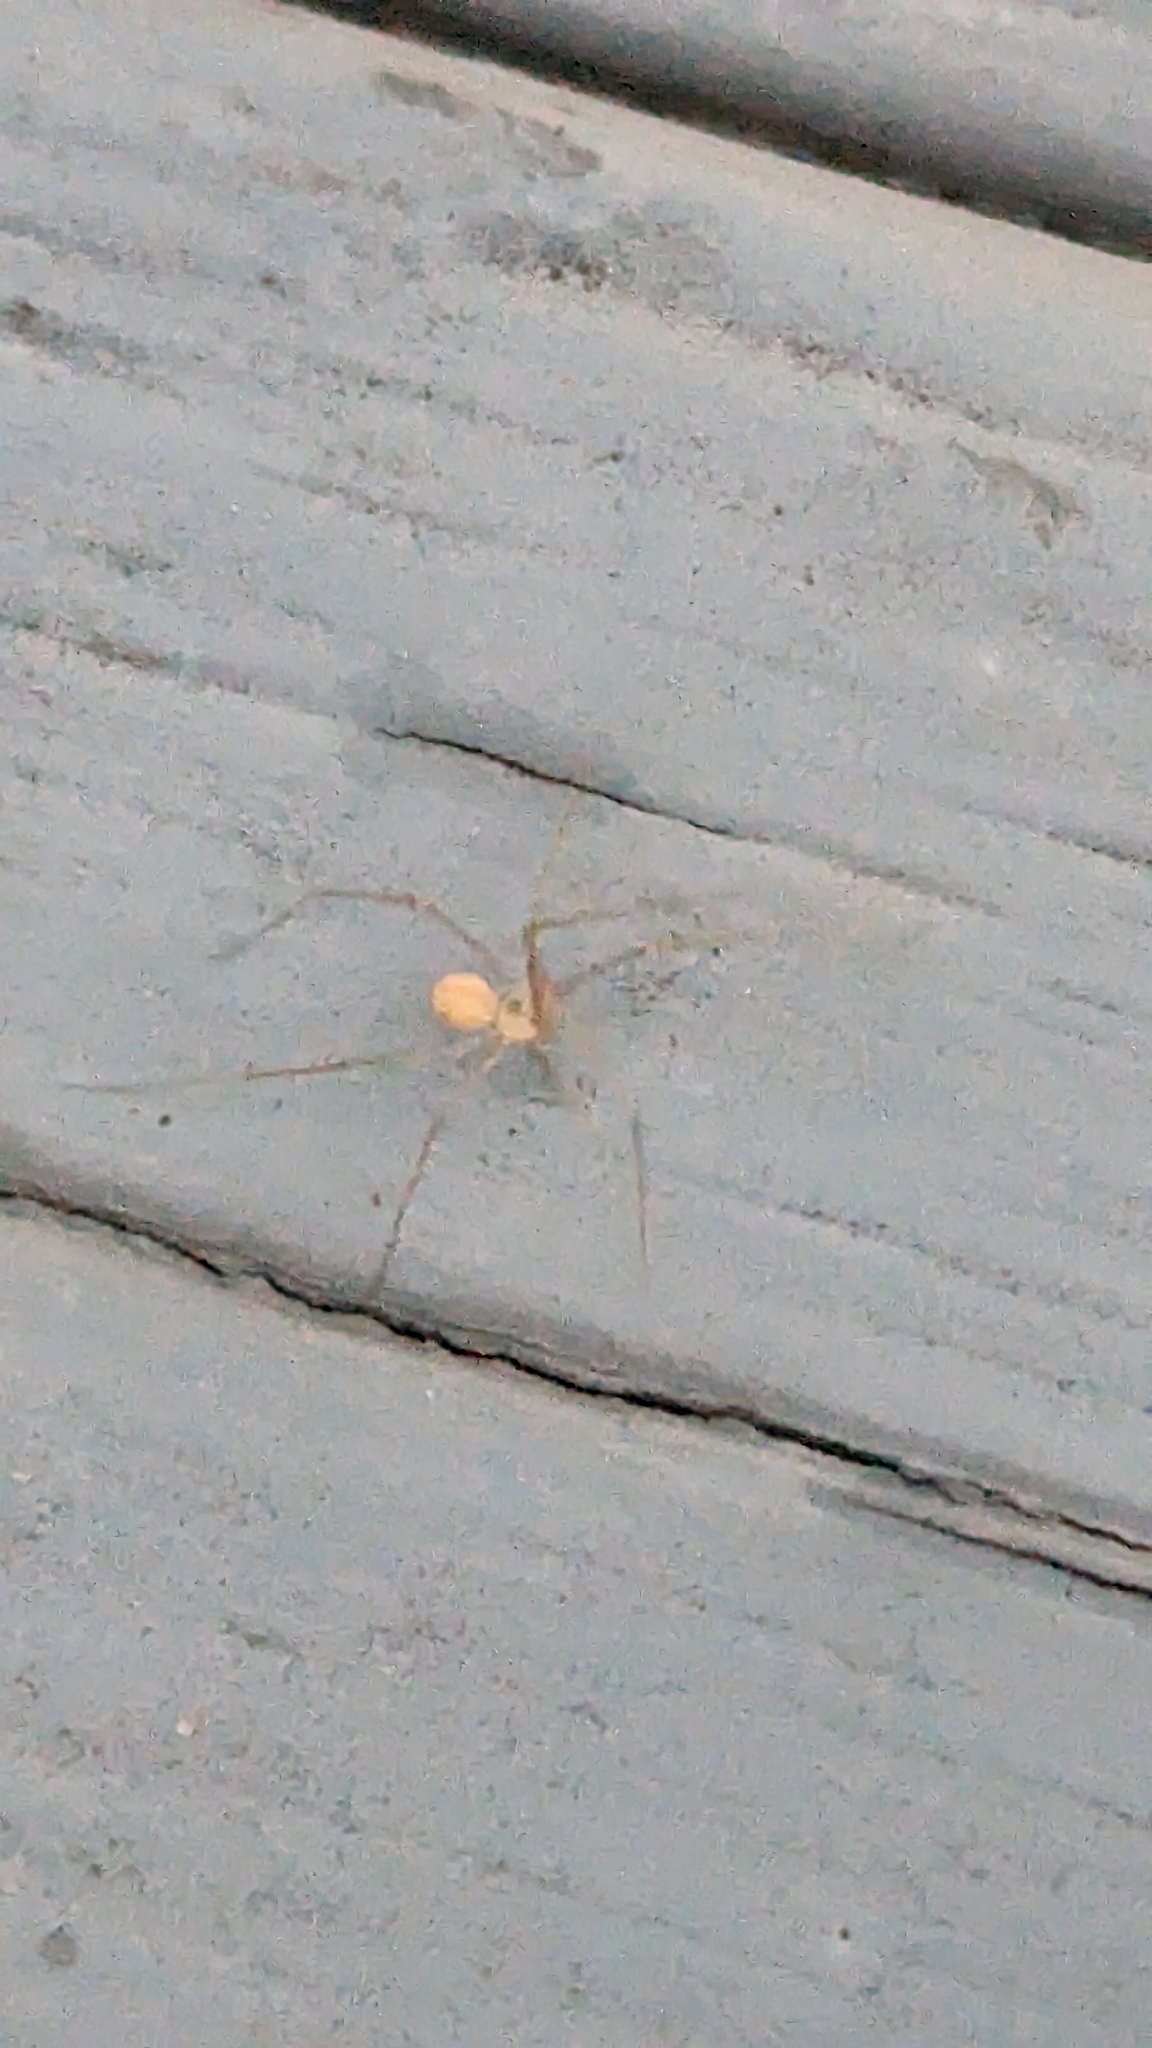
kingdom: Animalia
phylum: Arthropoda
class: Arachnida
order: Araneae
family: Pholcidae
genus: Spermophora
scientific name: Spermophora senoculata
